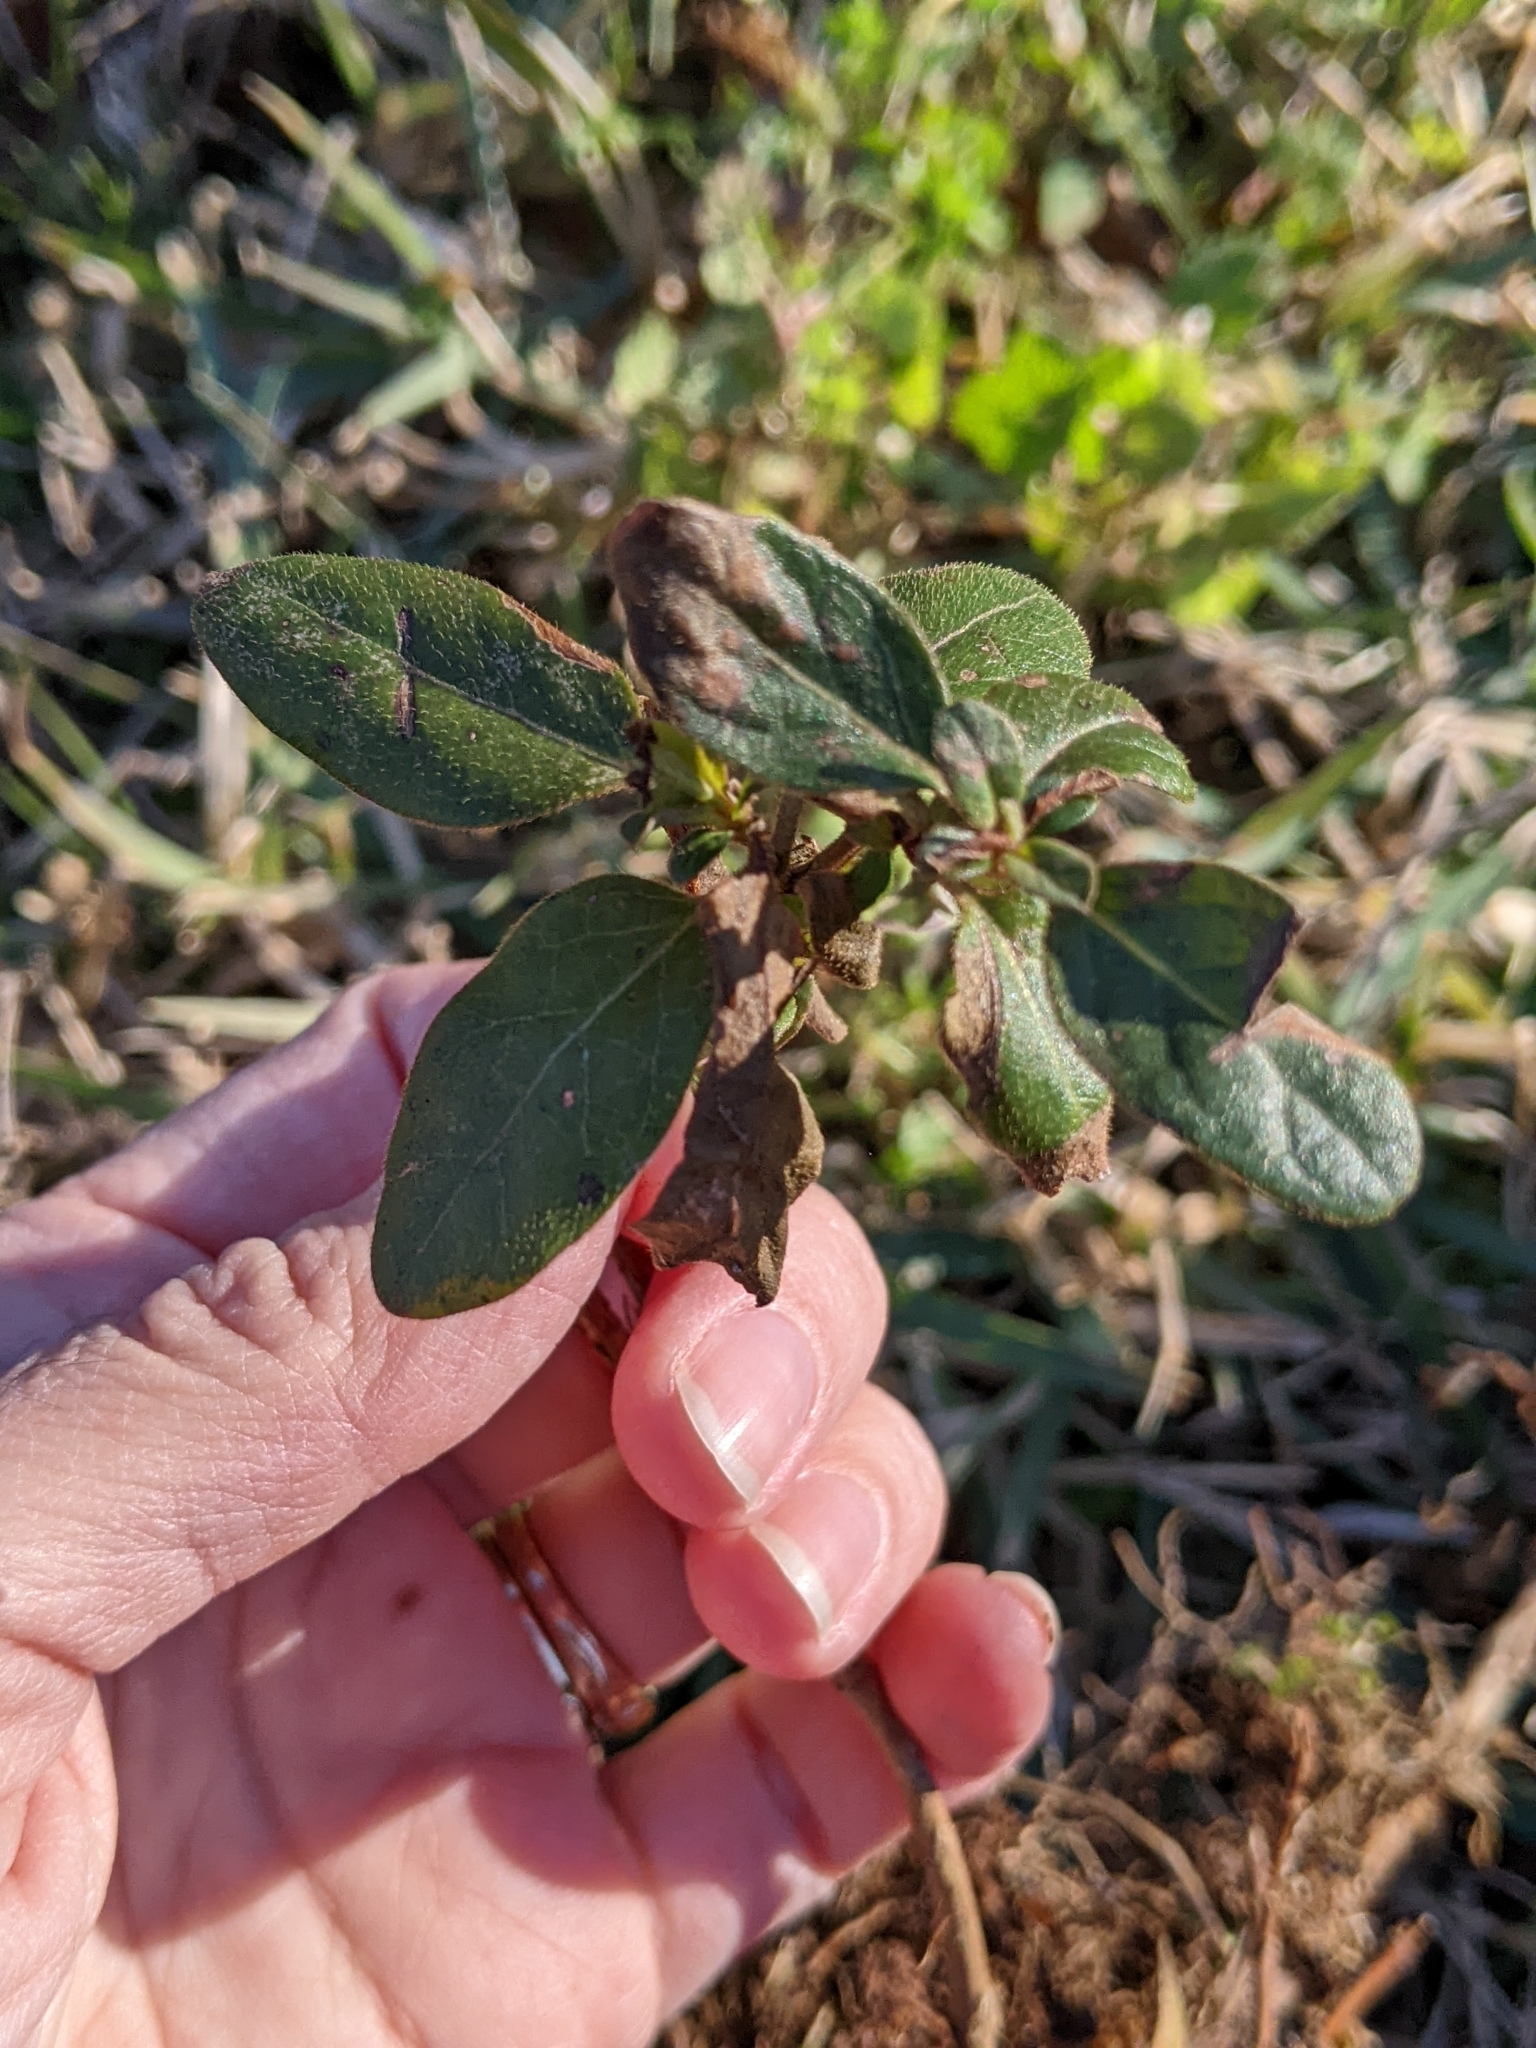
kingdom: Plantae
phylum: Tracheophyta
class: Magnoliopsida
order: Dipsacales
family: Caprifoliaceae
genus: Lonicera
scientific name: Lonicera japonica
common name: Japanese honeysuckle
